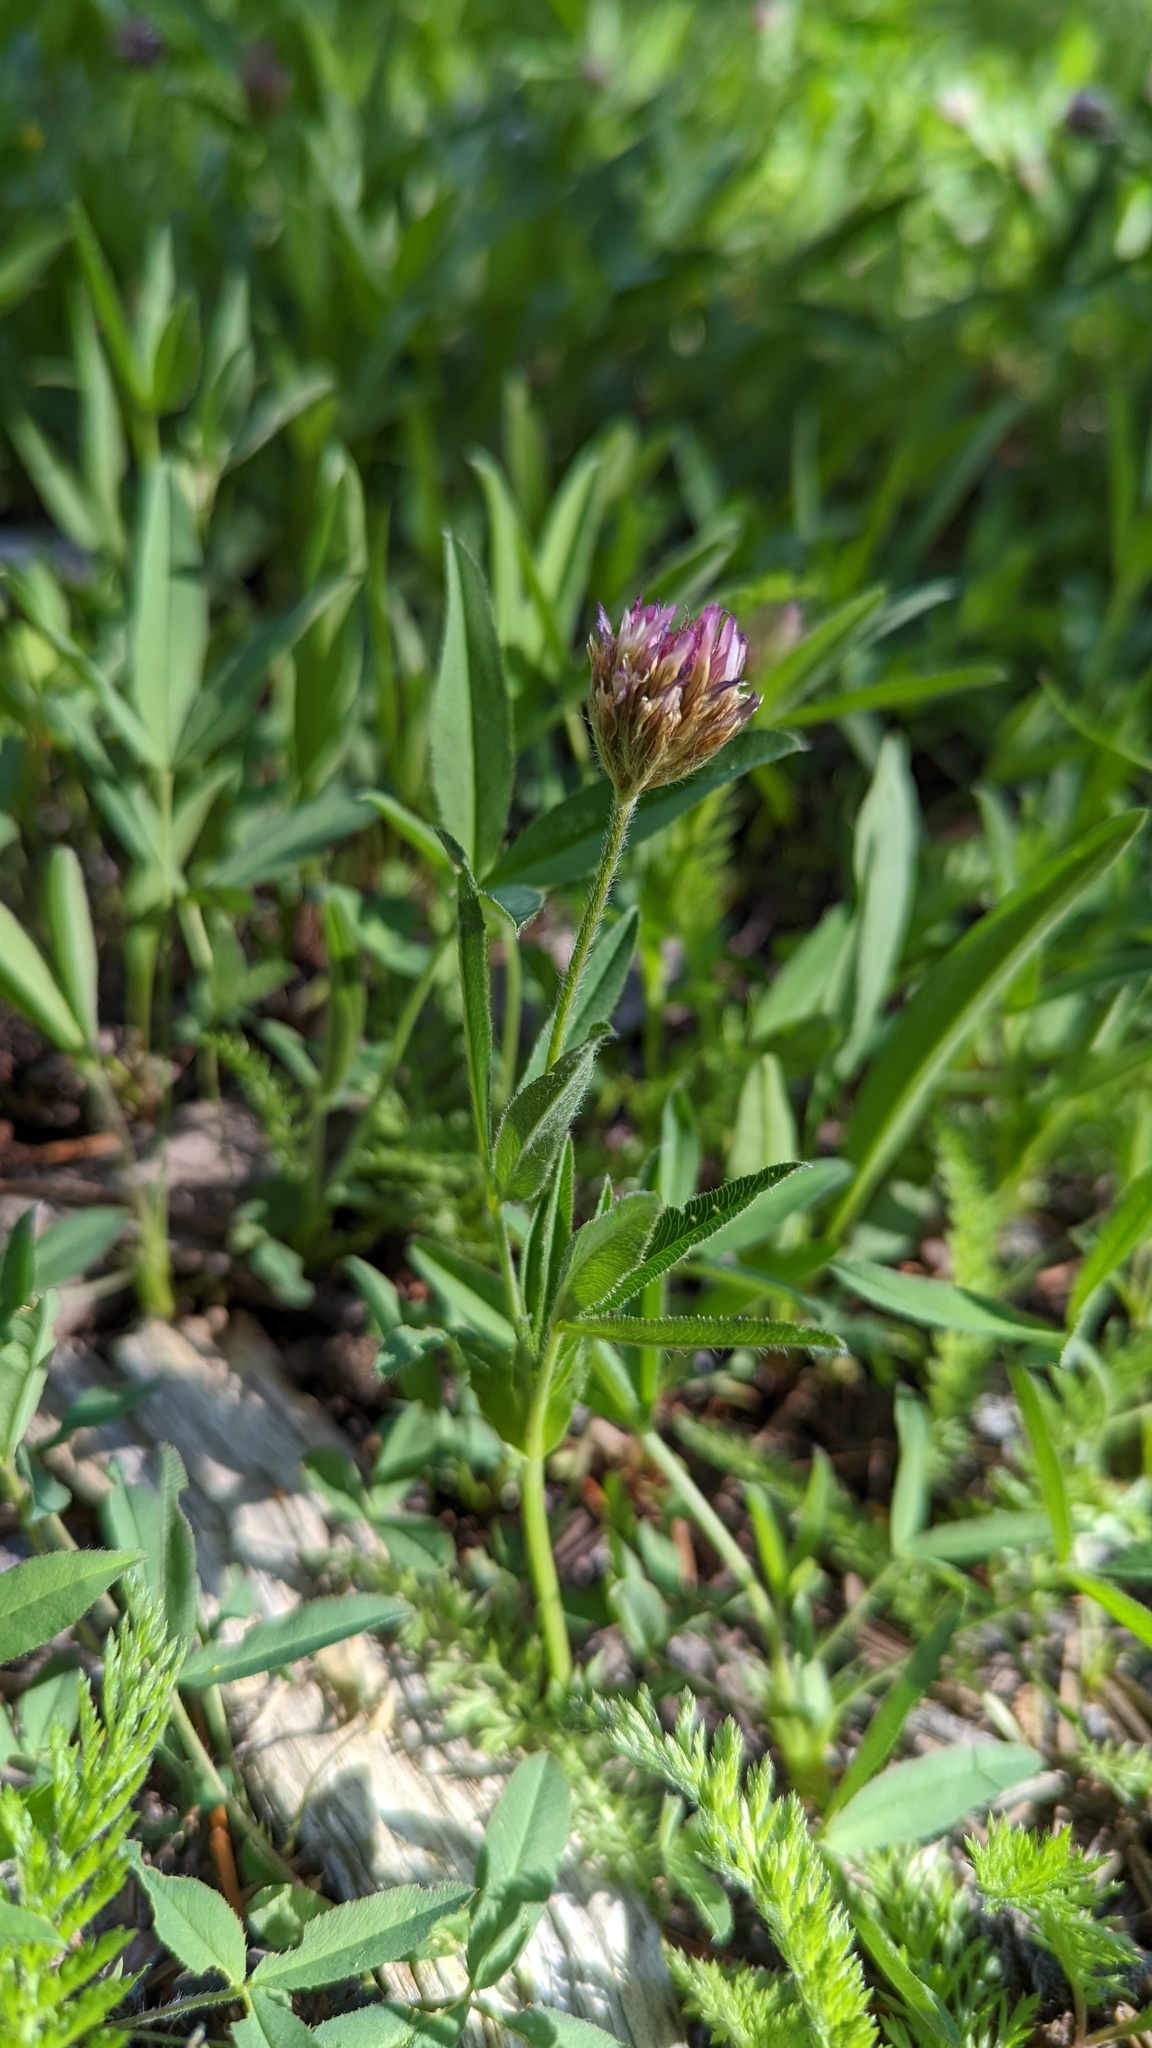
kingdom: Plantae
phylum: Tracheophyta
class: Magnoliopsida
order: Fabales
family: Fabaceae
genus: Trifolium
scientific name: Trifolium longipes
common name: Long-stalk clover
